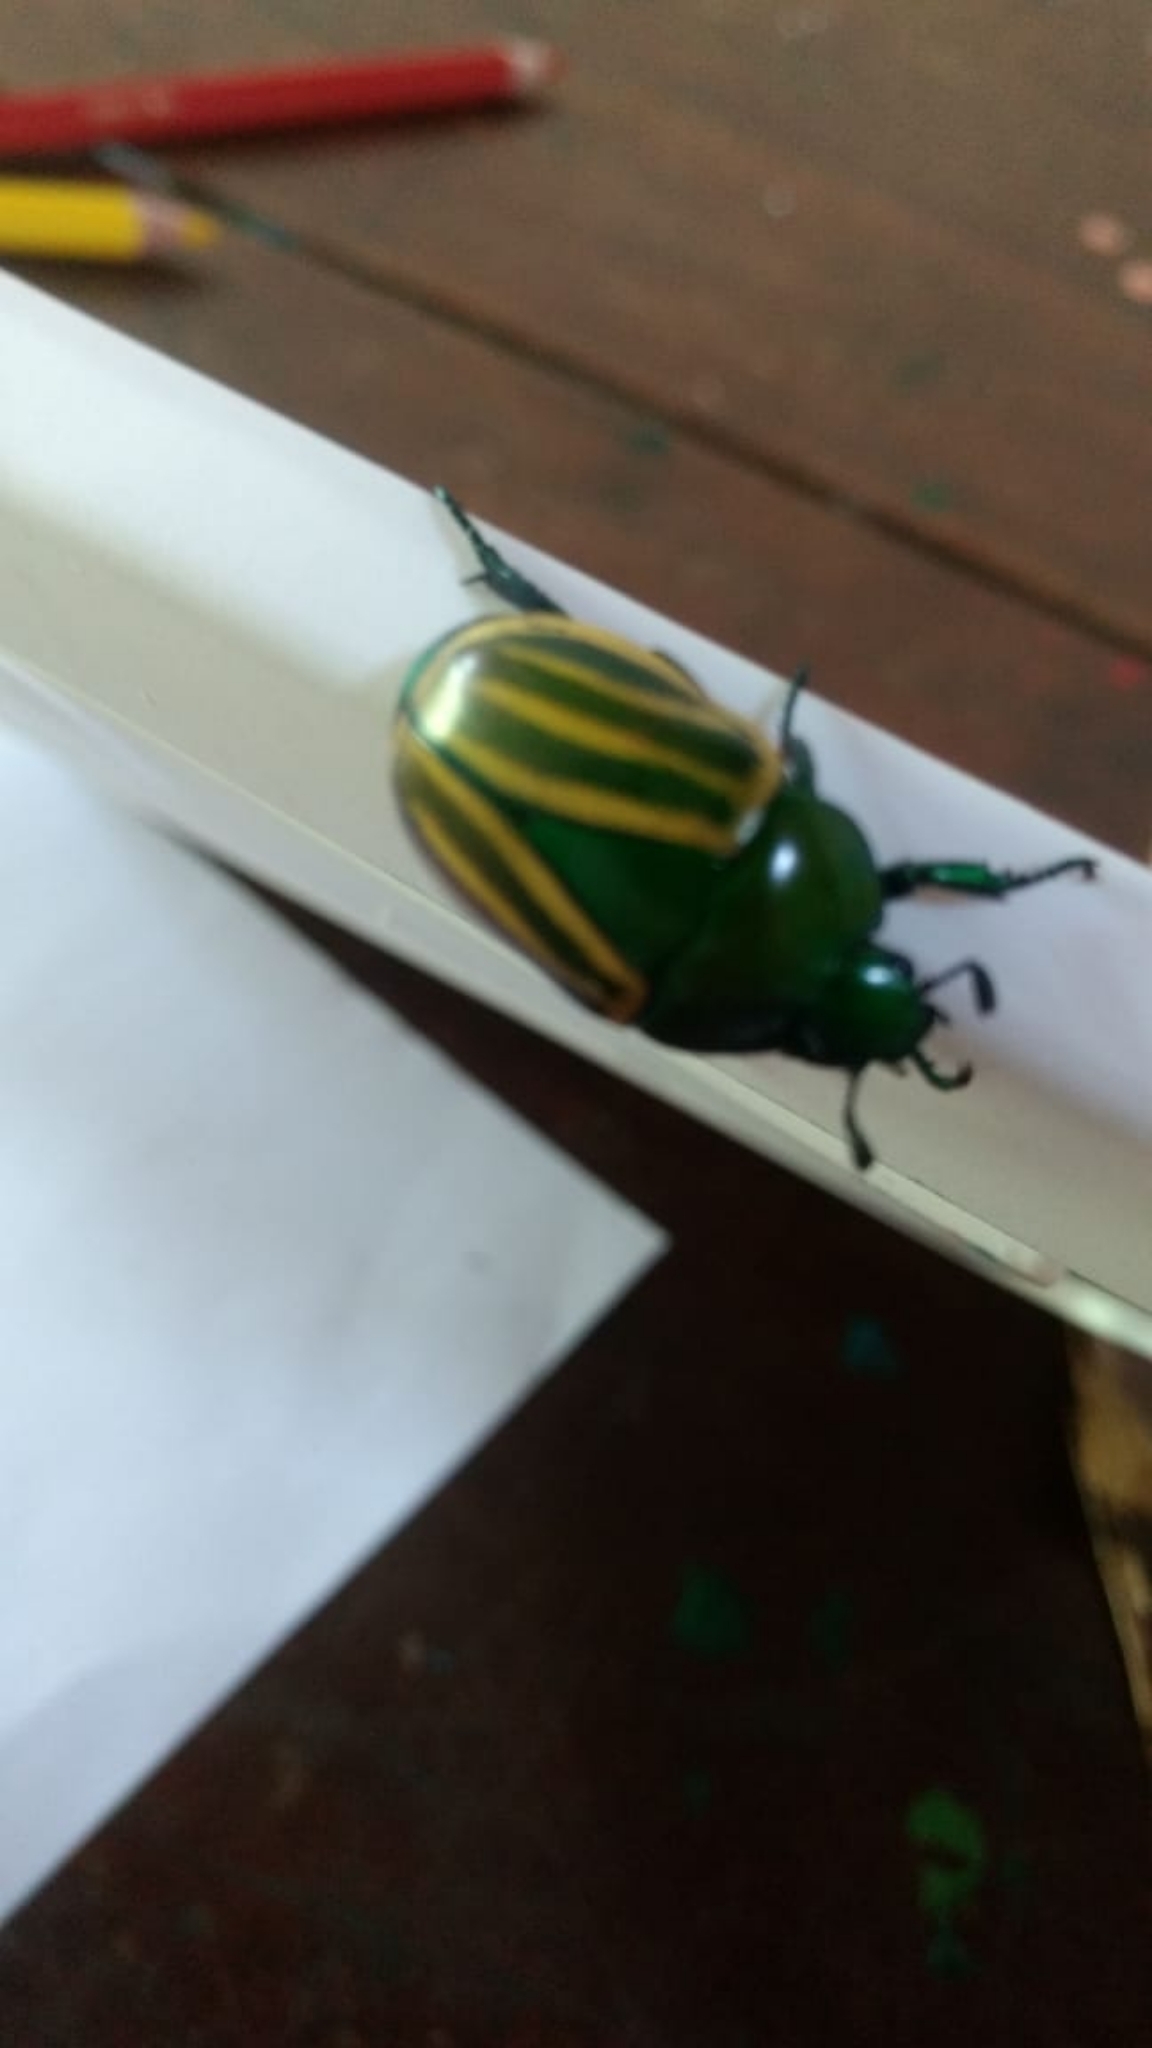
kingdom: Animalia
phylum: Arthropoda
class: Insecta
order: Coleoptera
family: Scarabaeidae
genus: Macraspis
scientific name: Macraspis festiva
